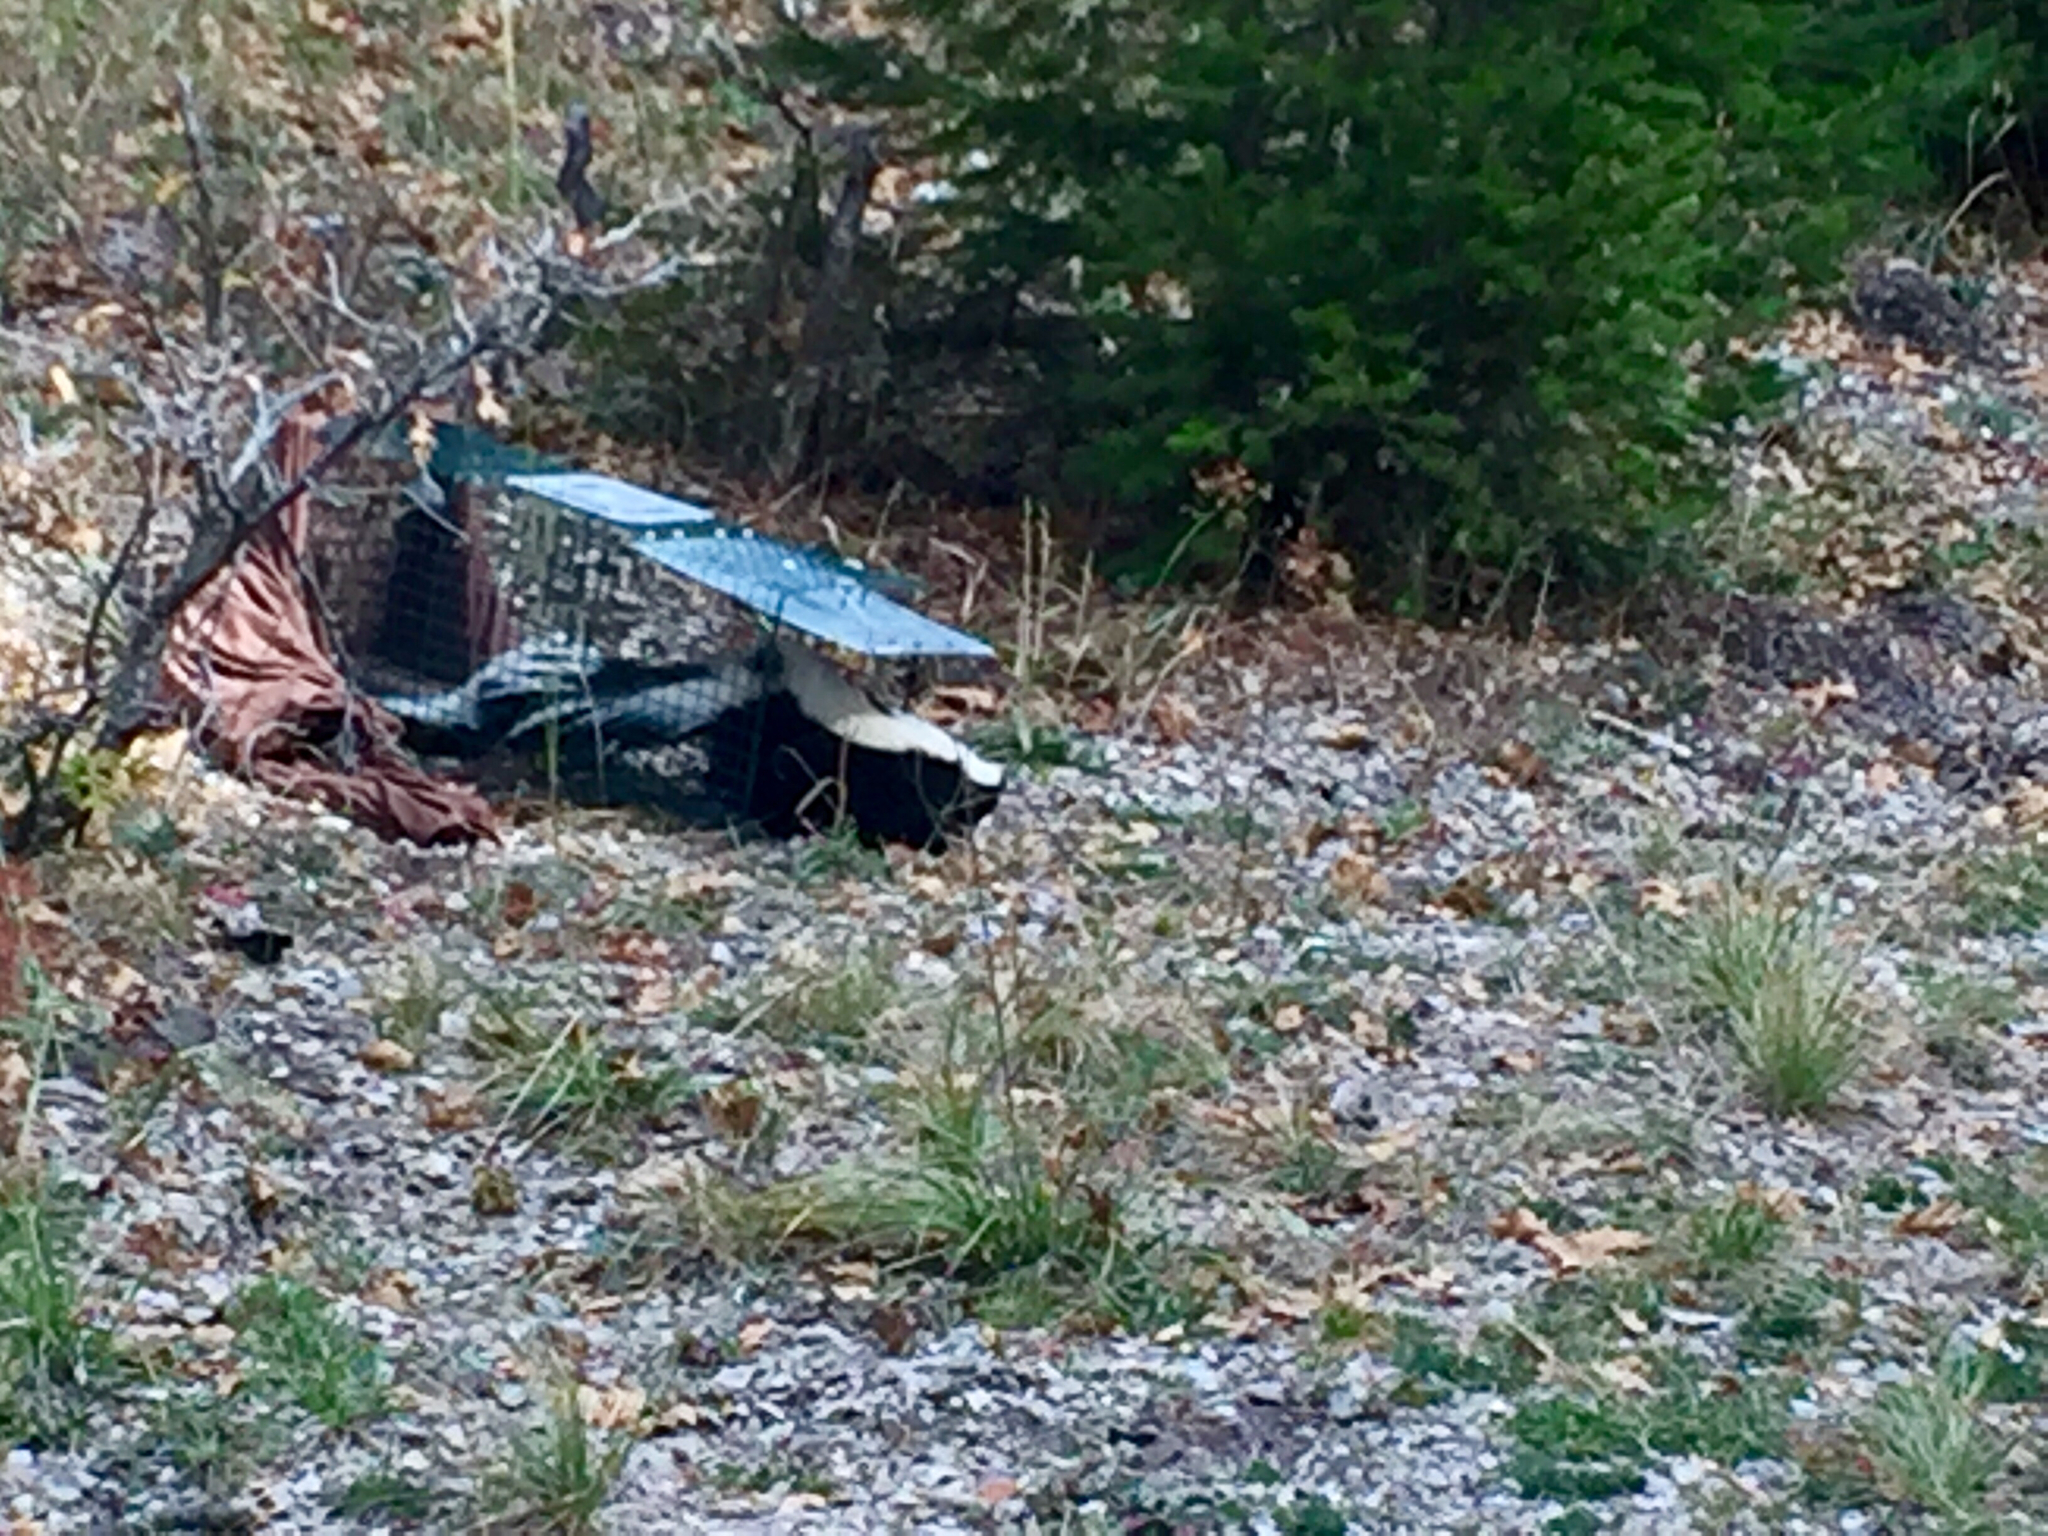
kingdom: Animalia
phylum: Chordata
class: Mammalia
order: Carnivora
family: Mephitidae
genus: Mephitis
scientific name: Mephitis mephitis
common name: Striped skunk
